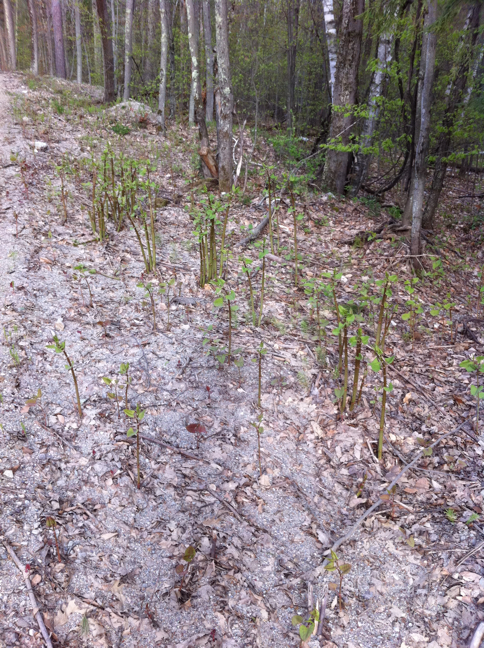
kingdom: Plantae
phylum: Tracheophyta
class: Magnoliopsida
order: Caryophyllales
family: Polygonaceae
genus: Reynoutria
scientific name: Reynoutria japonica
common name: Japanese knotweed
